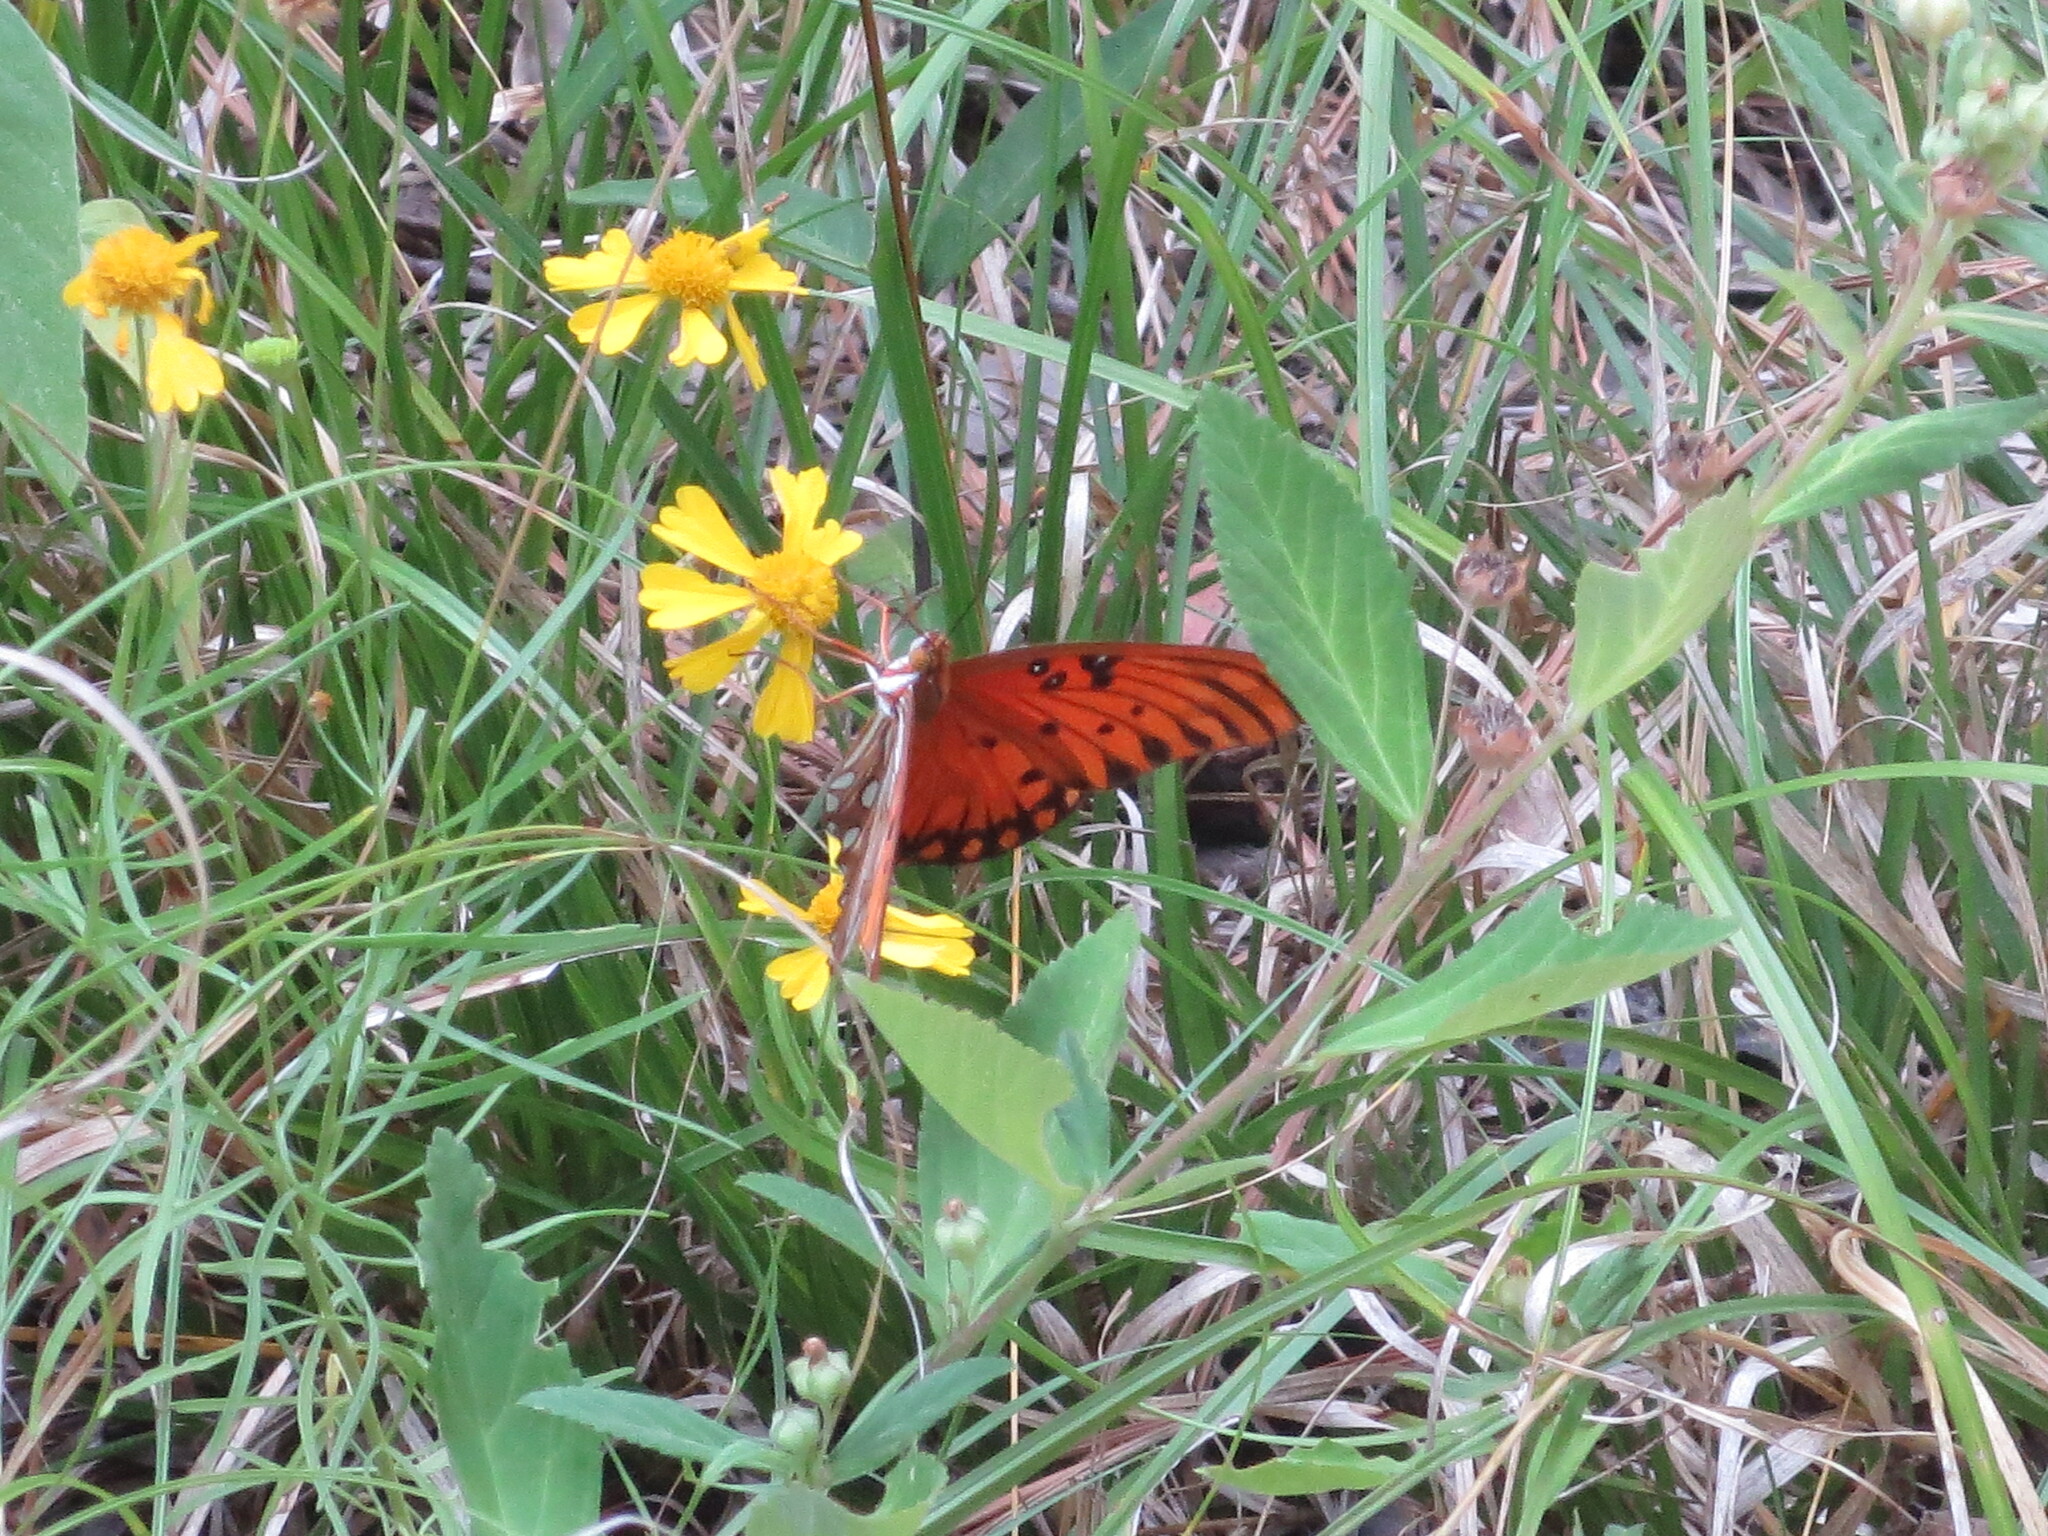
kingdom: Animalia
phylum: Arthropoda
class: Insecta
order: Lepidoptera
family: Nymphalidae
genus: Dione
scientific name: Dione vanillae
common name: Gulf fritillary
